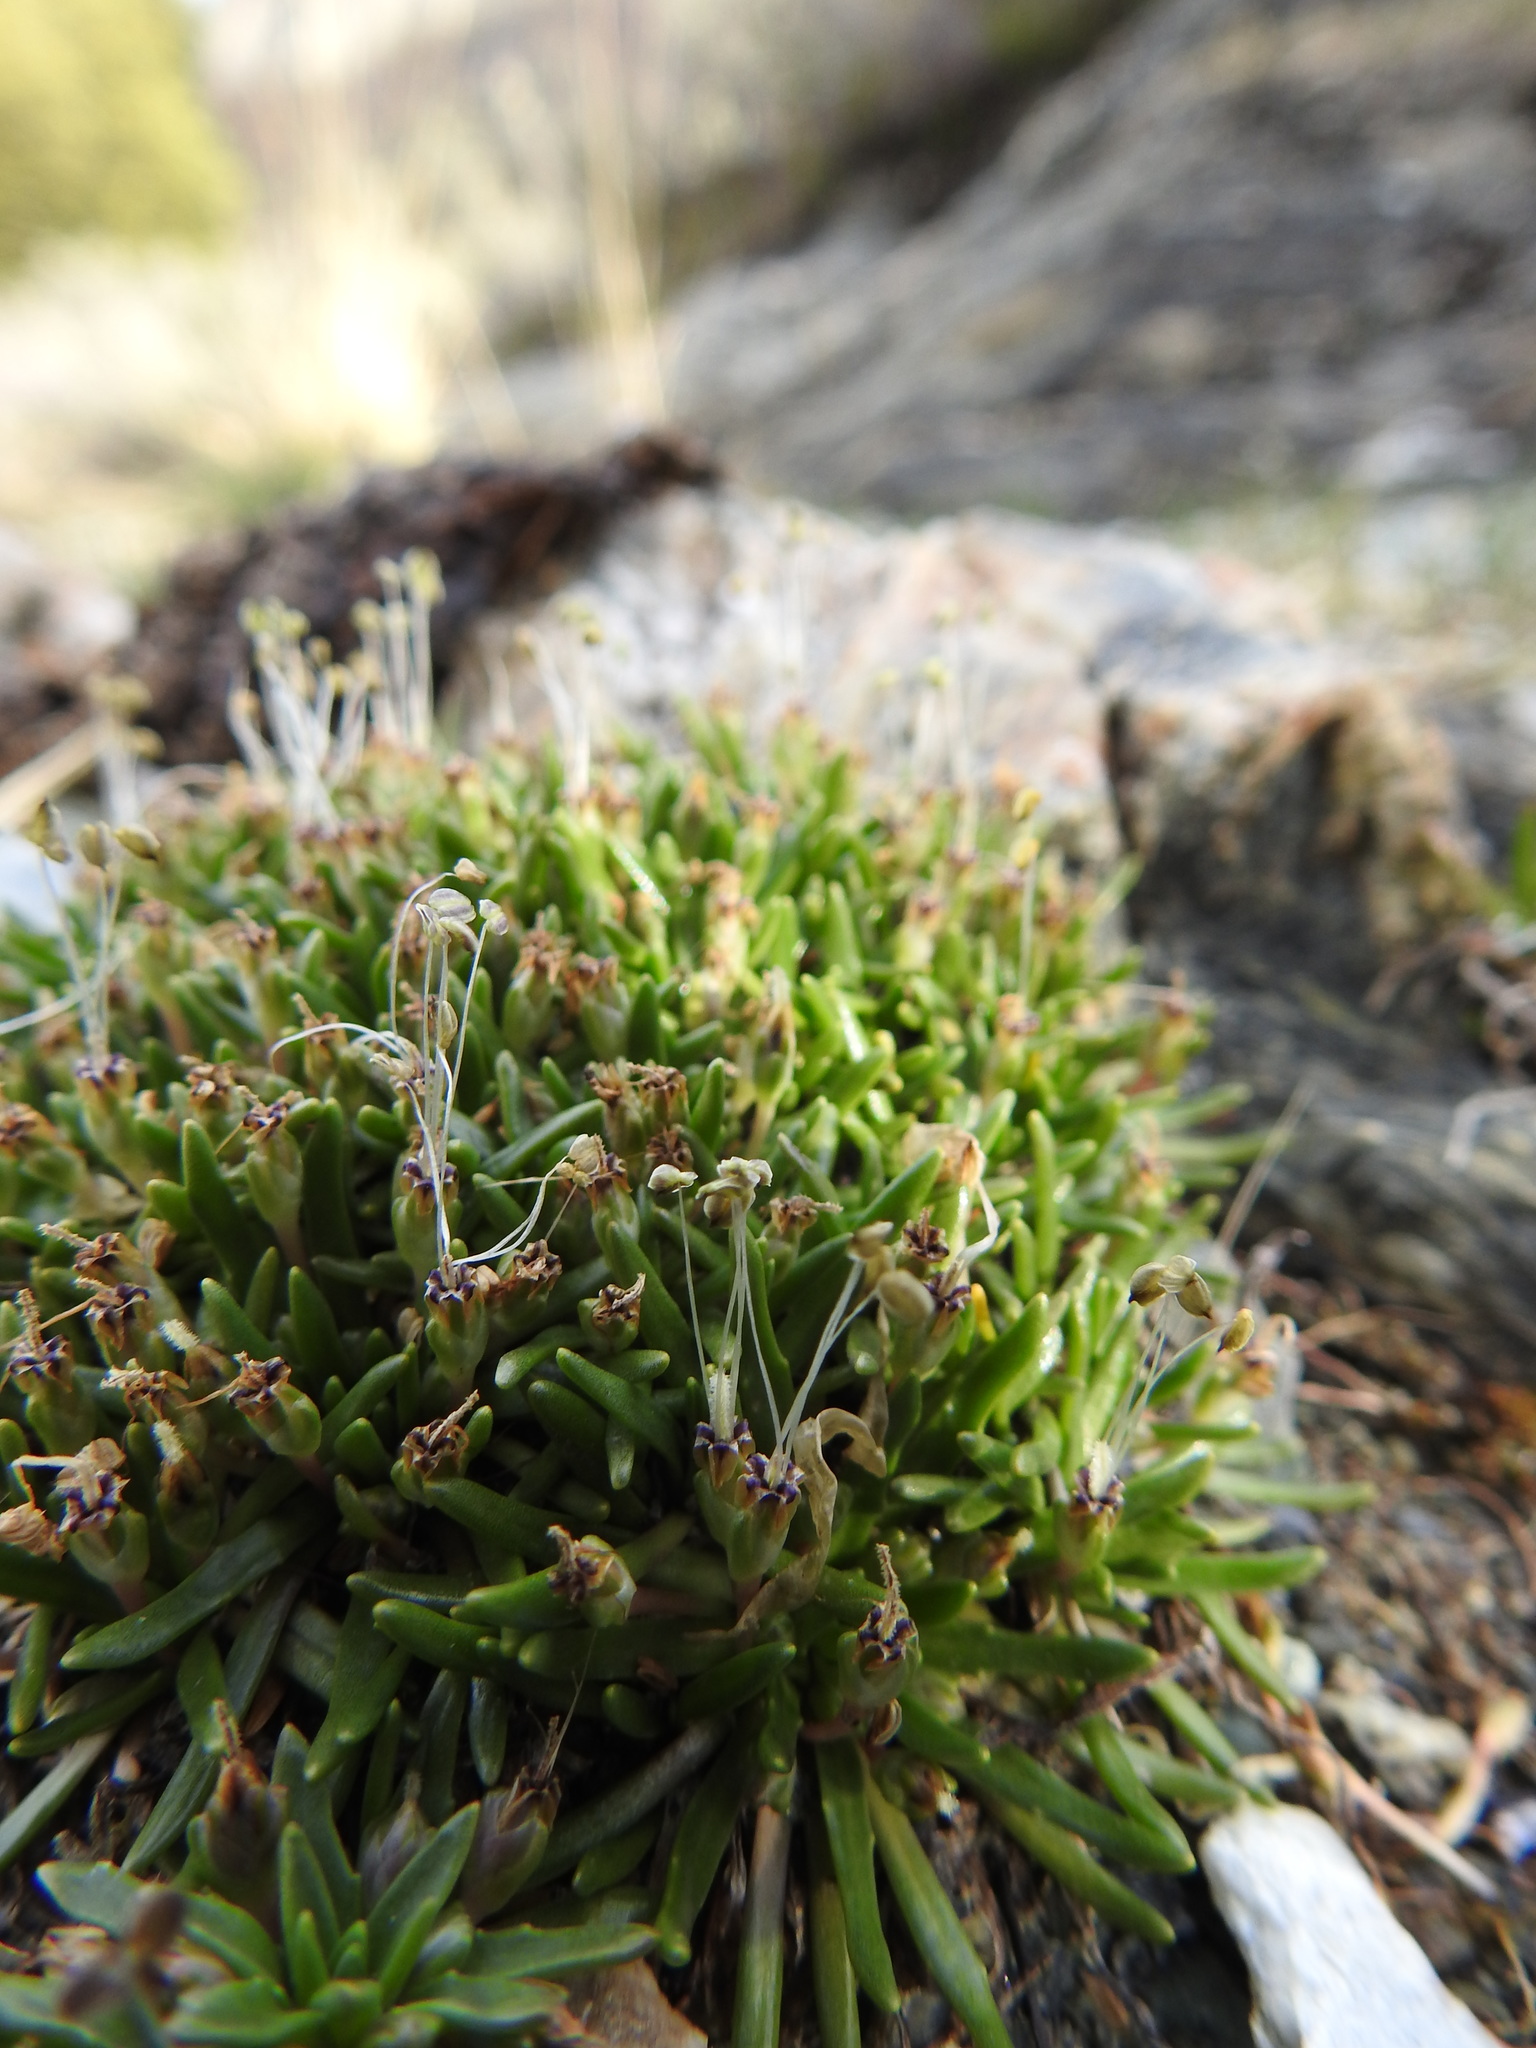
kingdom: Plantae
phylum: Tracheophyta
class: Magnoliopsida
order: Lamiales
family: Plantaginaceae
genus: Littorella
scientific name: Littorella australis
